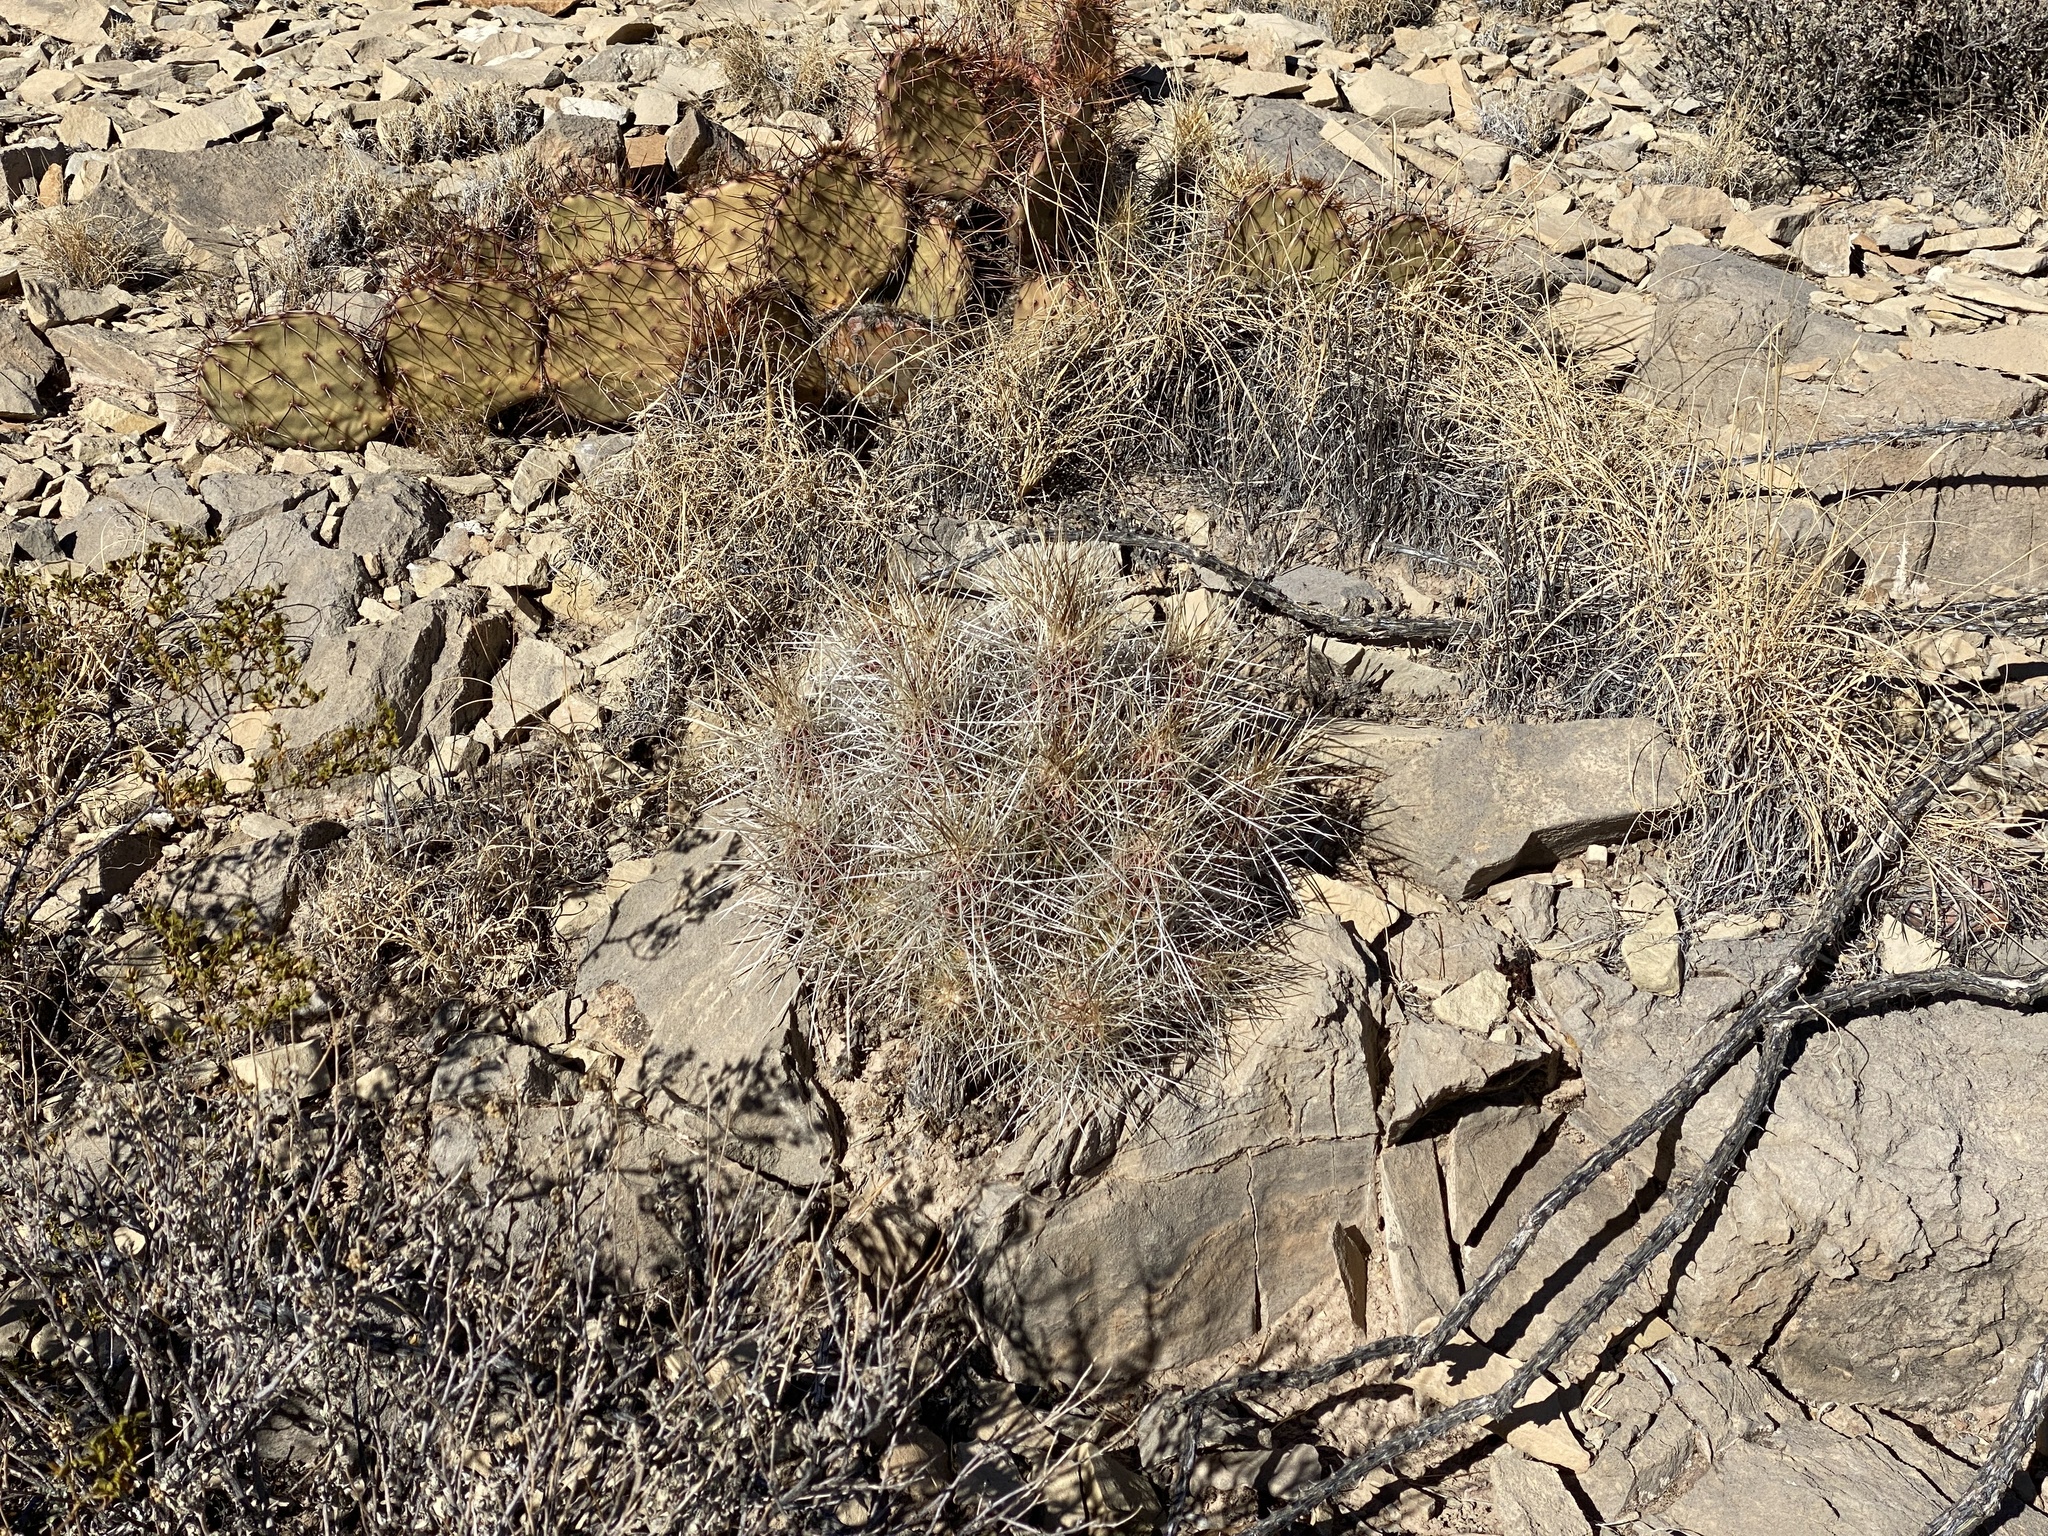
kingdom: Plantae
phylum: Tracheophyta
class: Magnoliopsida
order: Caryophyllales
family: Cactaceae
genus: Echinocereus
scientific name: Echinocereus stramineus
